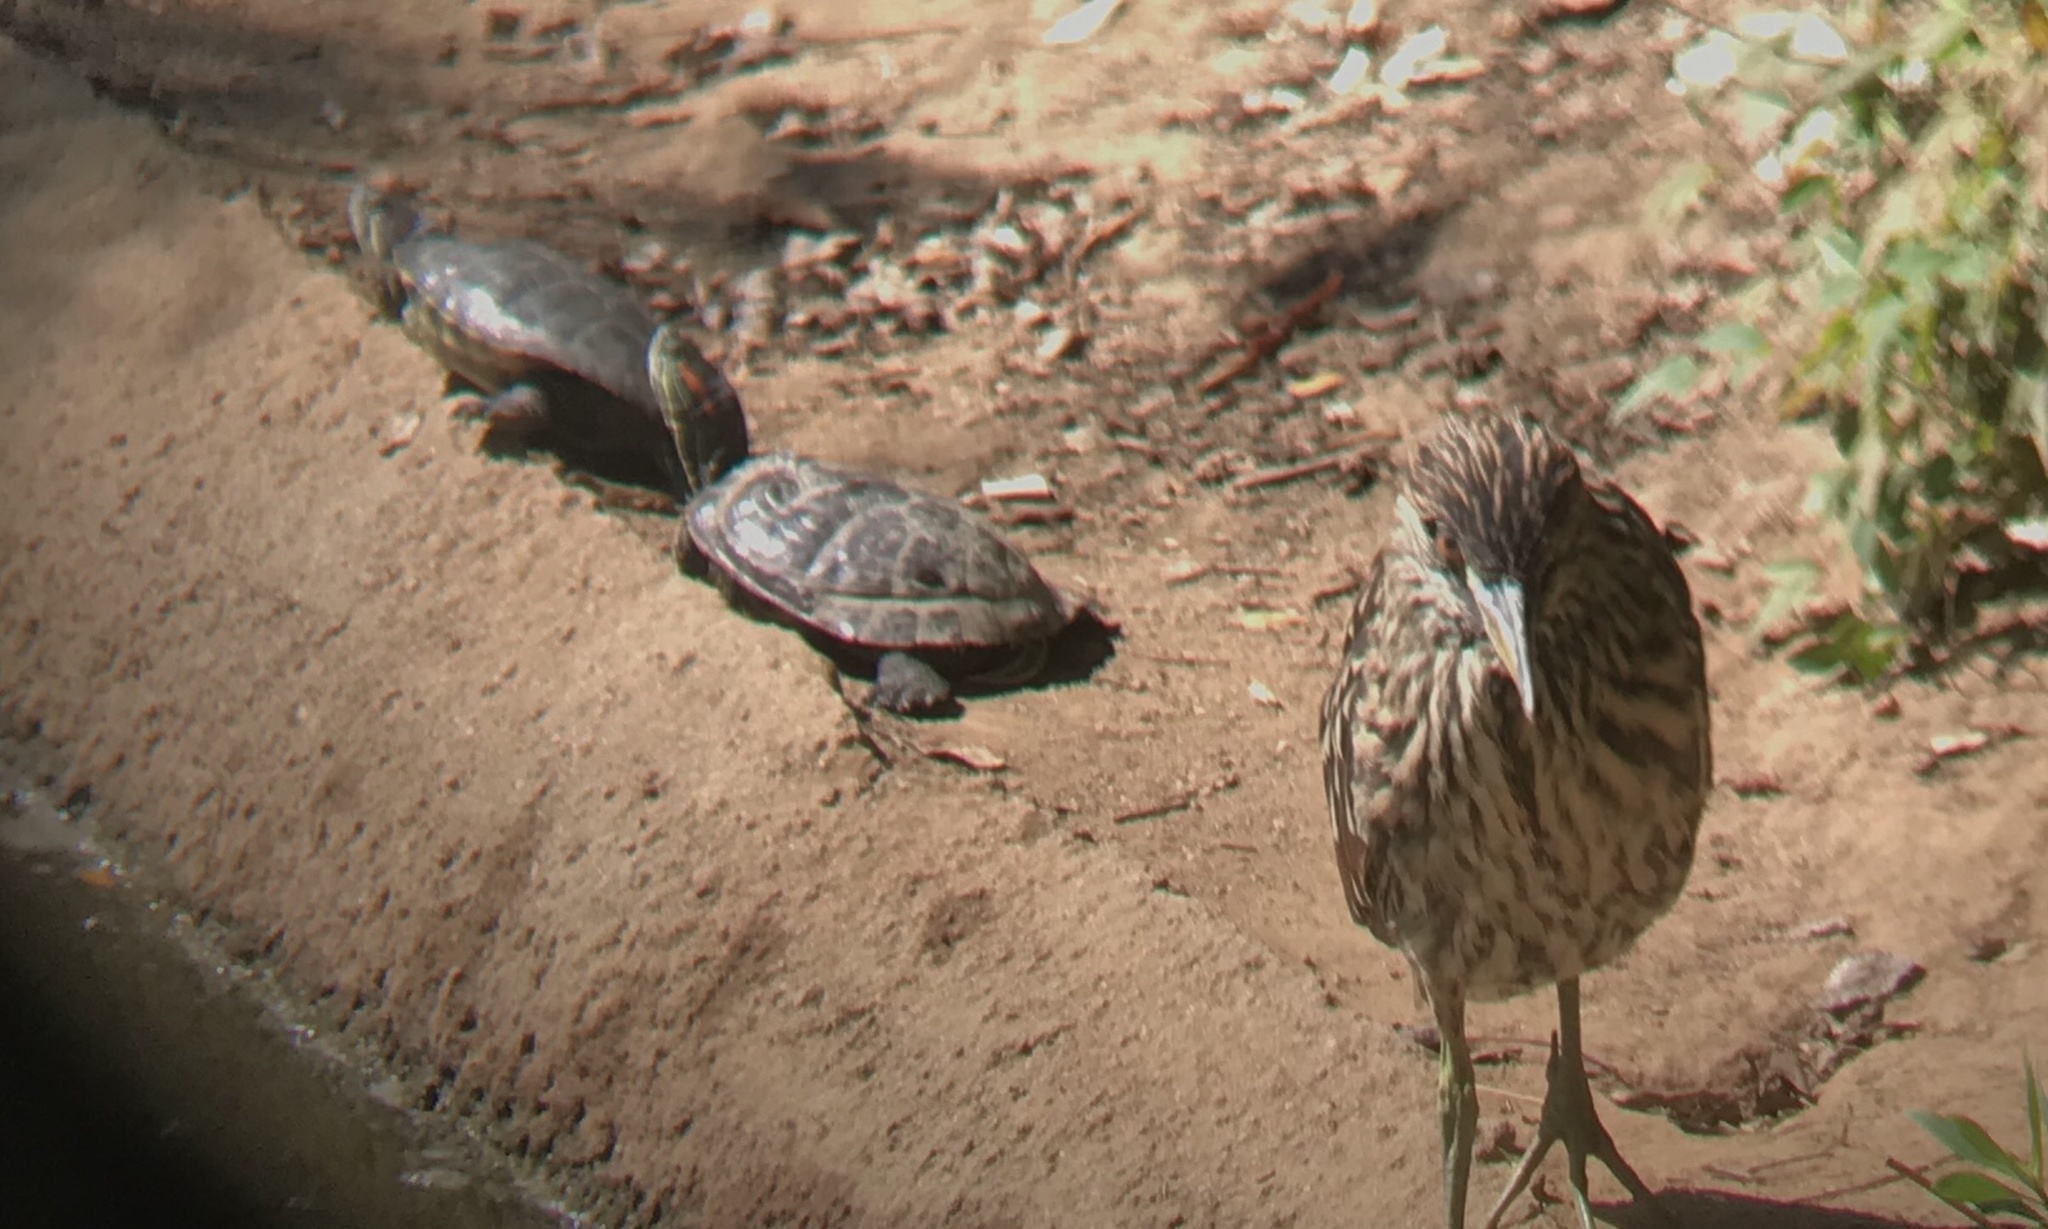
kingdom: Animalia
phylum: Chordata
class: Testudines
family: Emydidae
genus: Trachemys
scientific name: Trachemys scripta
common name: Slider
